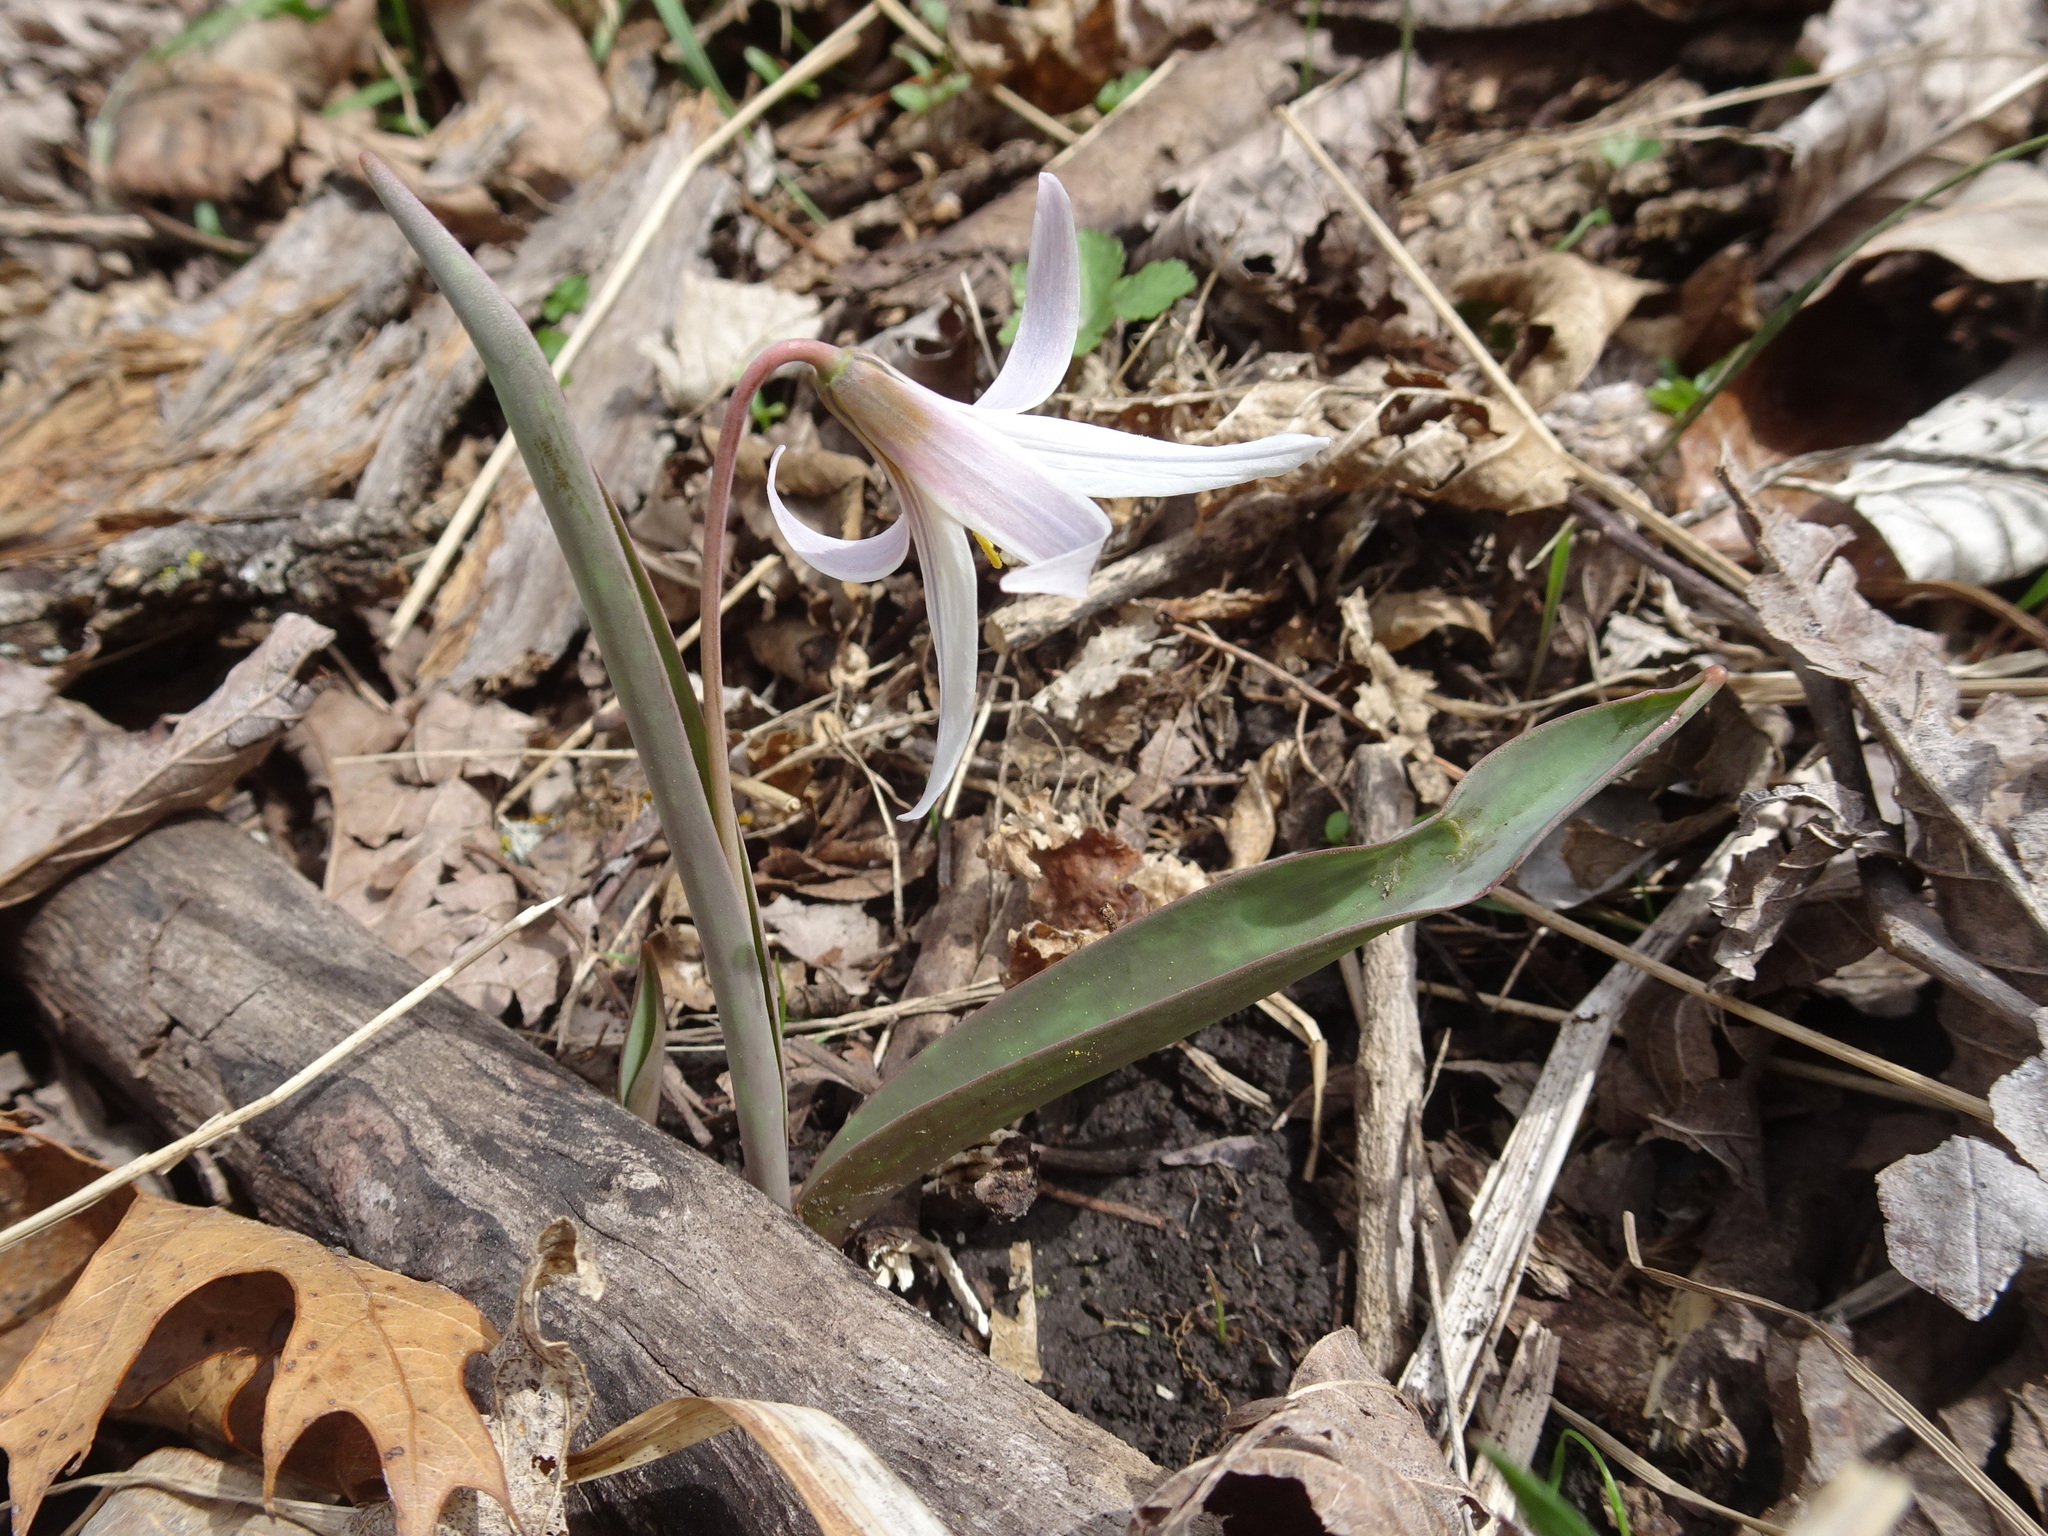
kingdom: Plantae
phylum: Tracheophyta
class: Liliopsida
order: Liliales
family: Liliaceae
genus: Erythronium
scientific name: Erythronium mesochoreum
